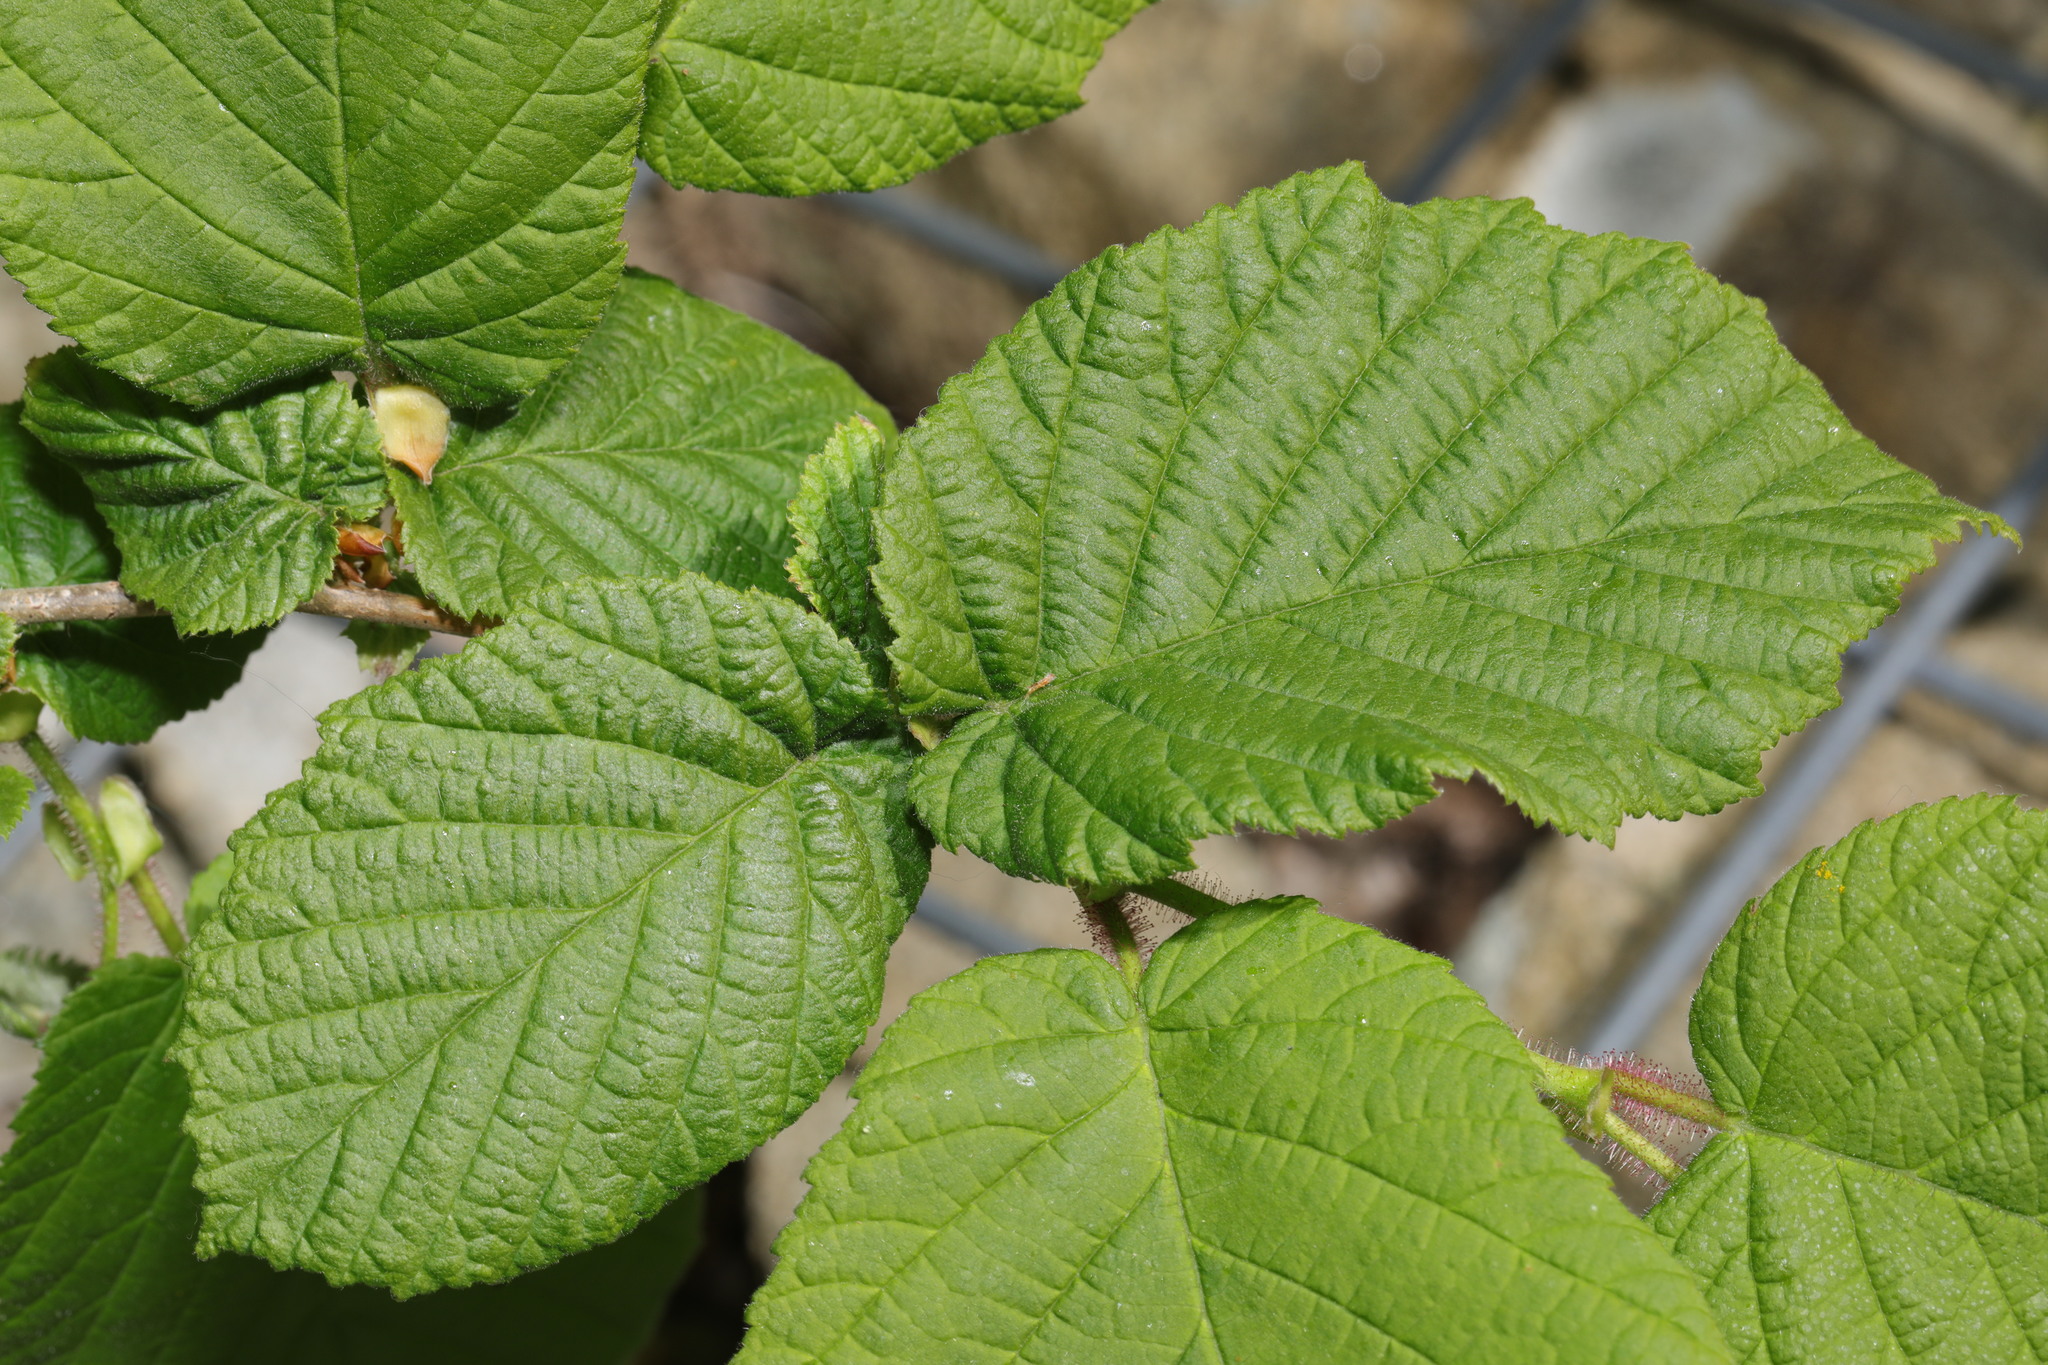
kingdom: Plantae
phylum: Tracheophyta
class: Magnoliopsida
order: Fagales
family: Betulaceae
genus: Corylus
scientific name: Corylus avellana
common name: European hazel
